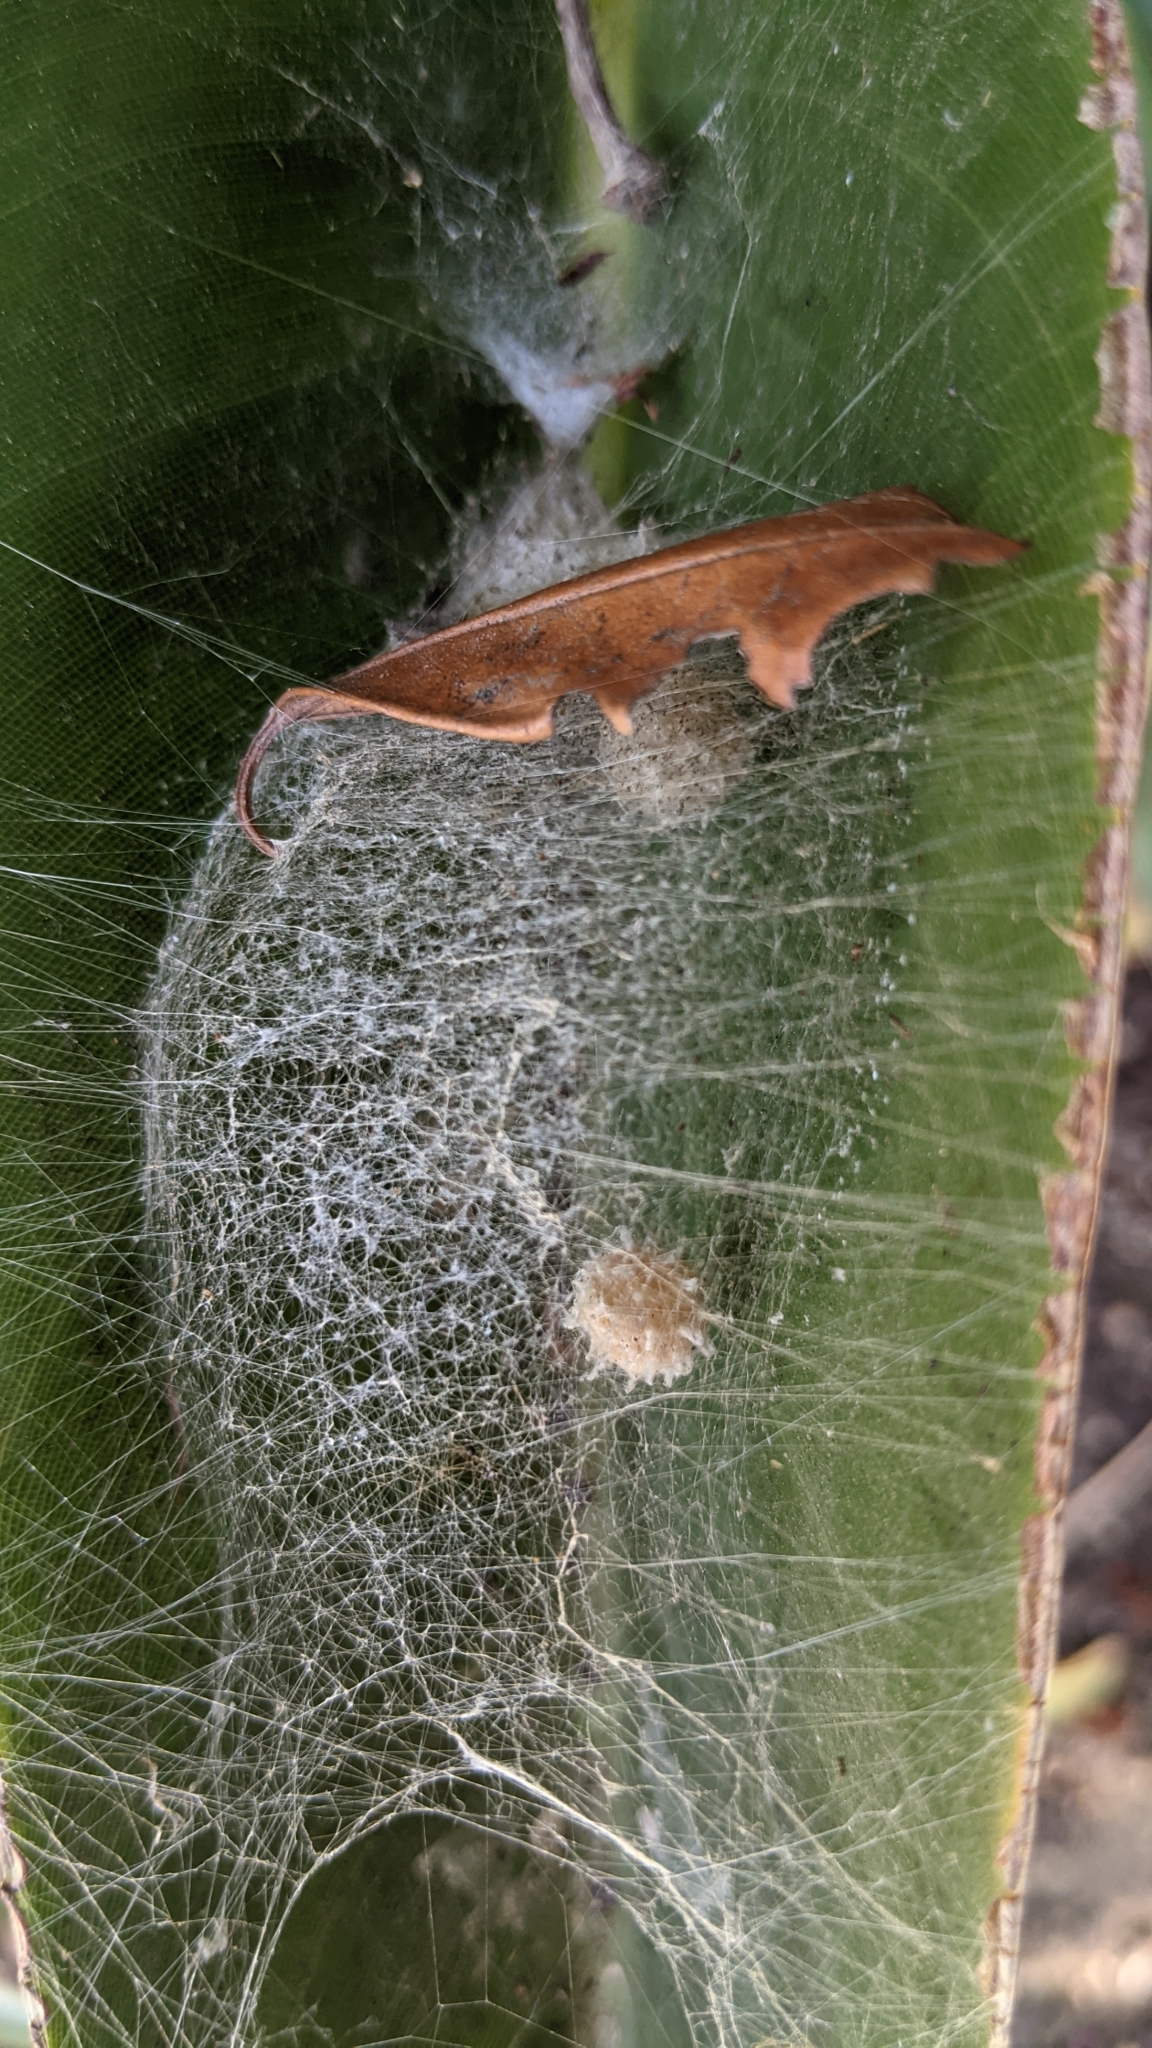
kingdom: Animalia
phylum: Arthropoda
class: Arachnida
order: Araneae
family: Theridiidae
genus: Latrodectus
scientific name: Latrodectus geometricus
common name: Brown widow spider
